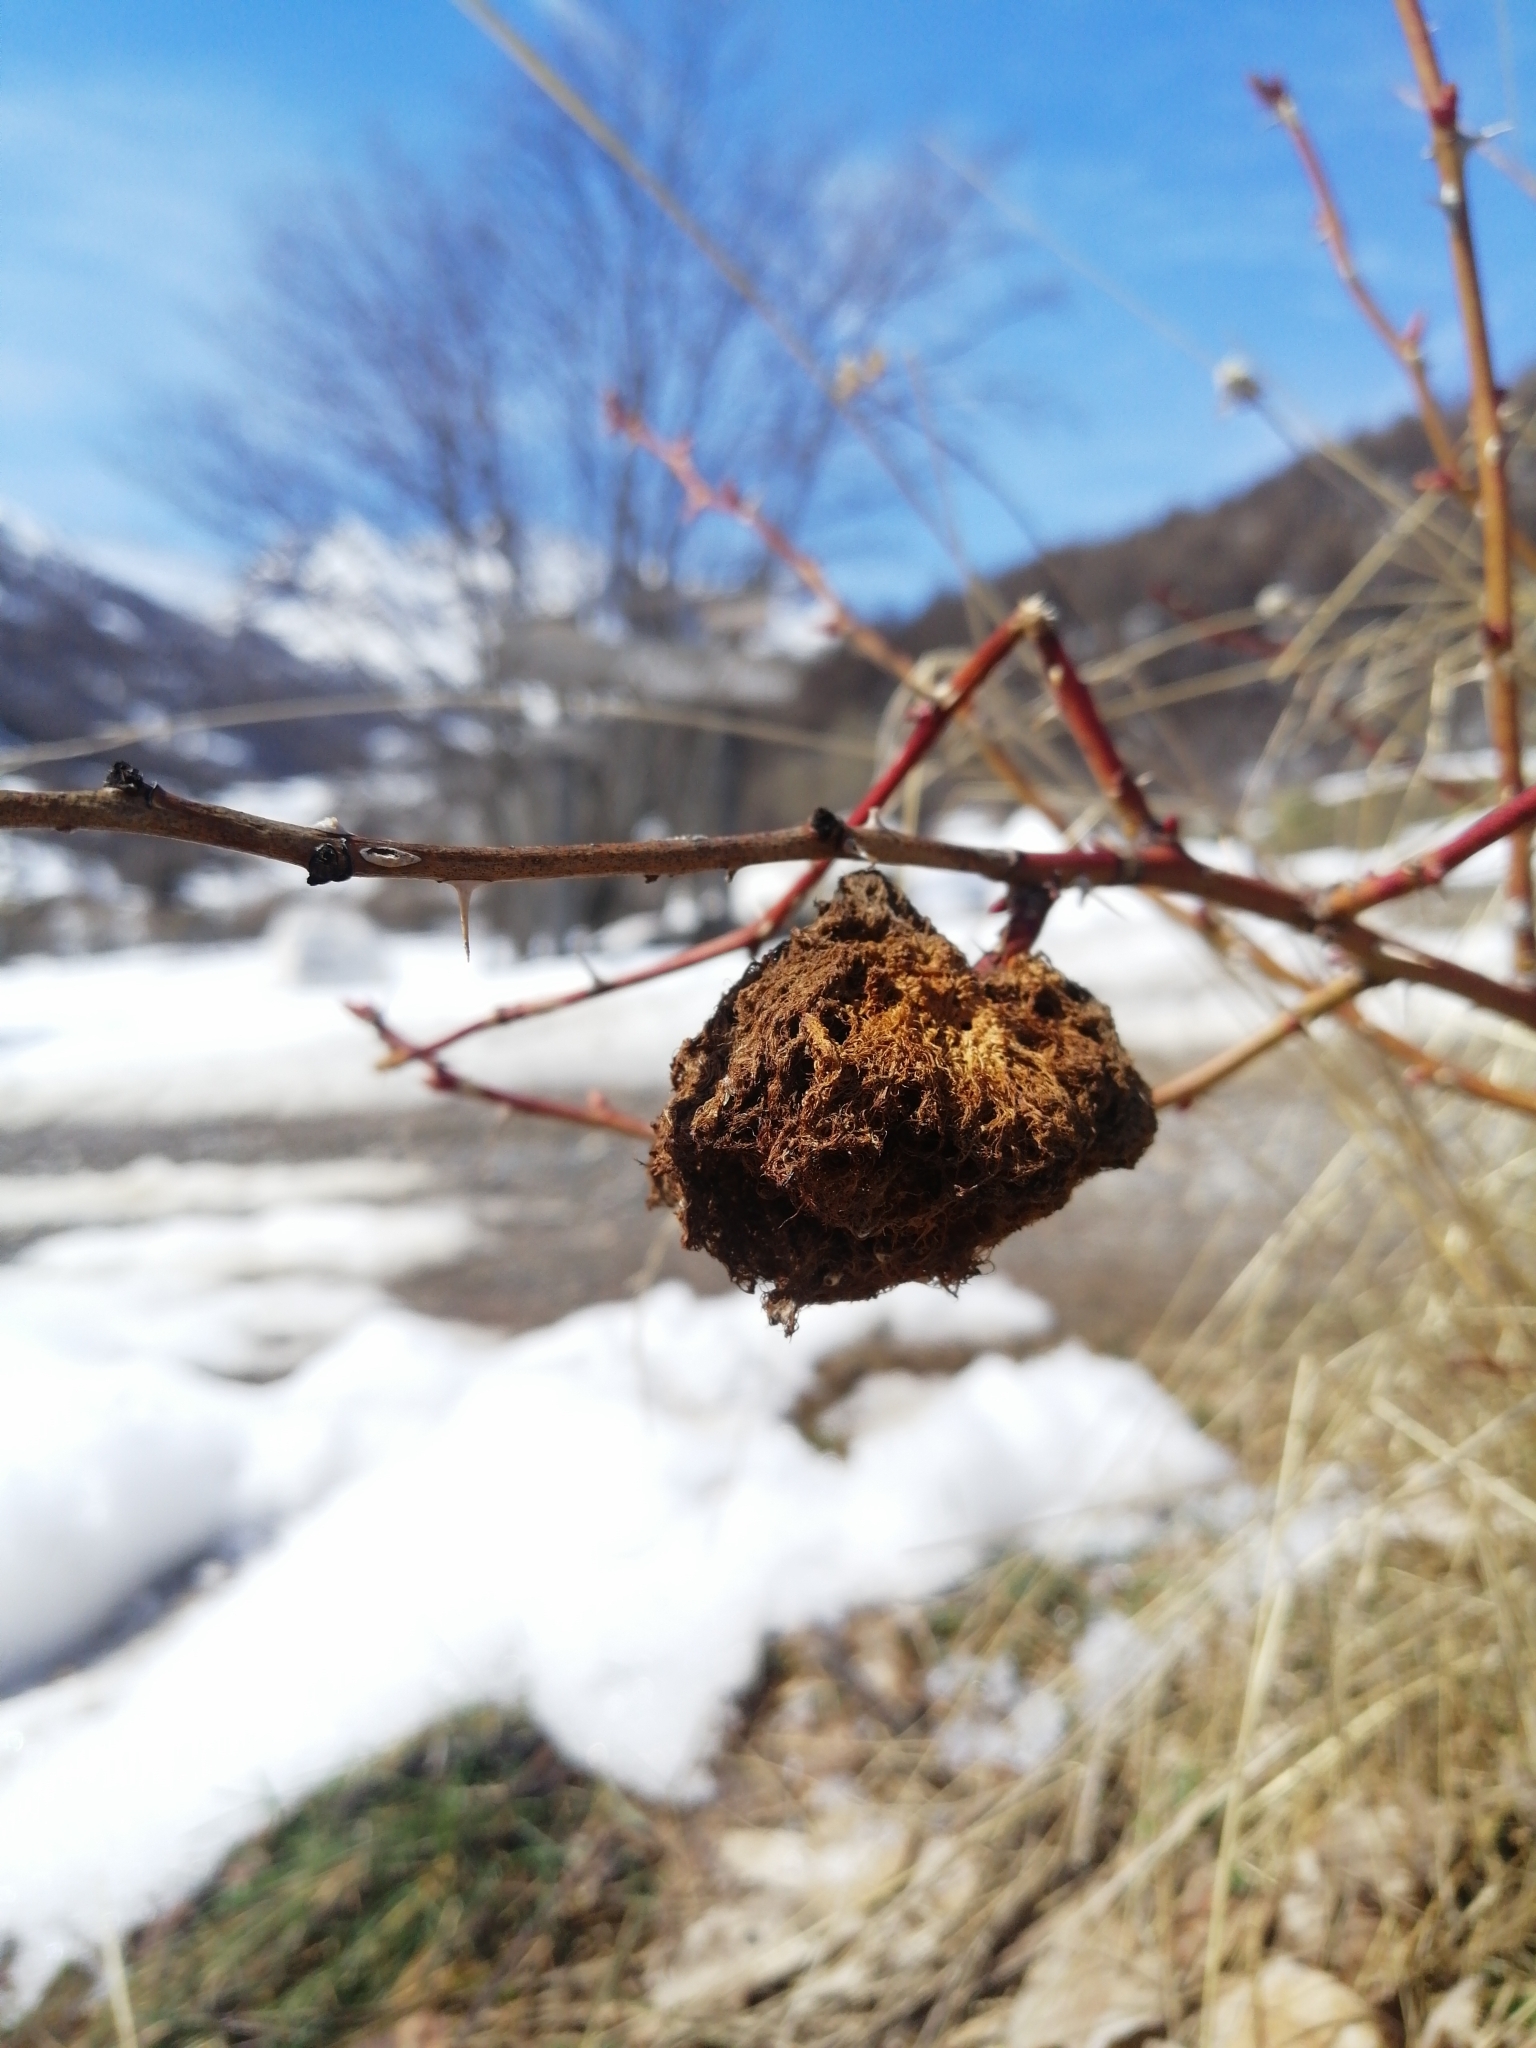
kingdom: Animalia
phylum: Arthropoda
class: Insecta
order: Hymenoptera
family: Cynipidae
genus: Diplolepis
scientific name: Diplolepis rosae
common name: Bedeguar gall
